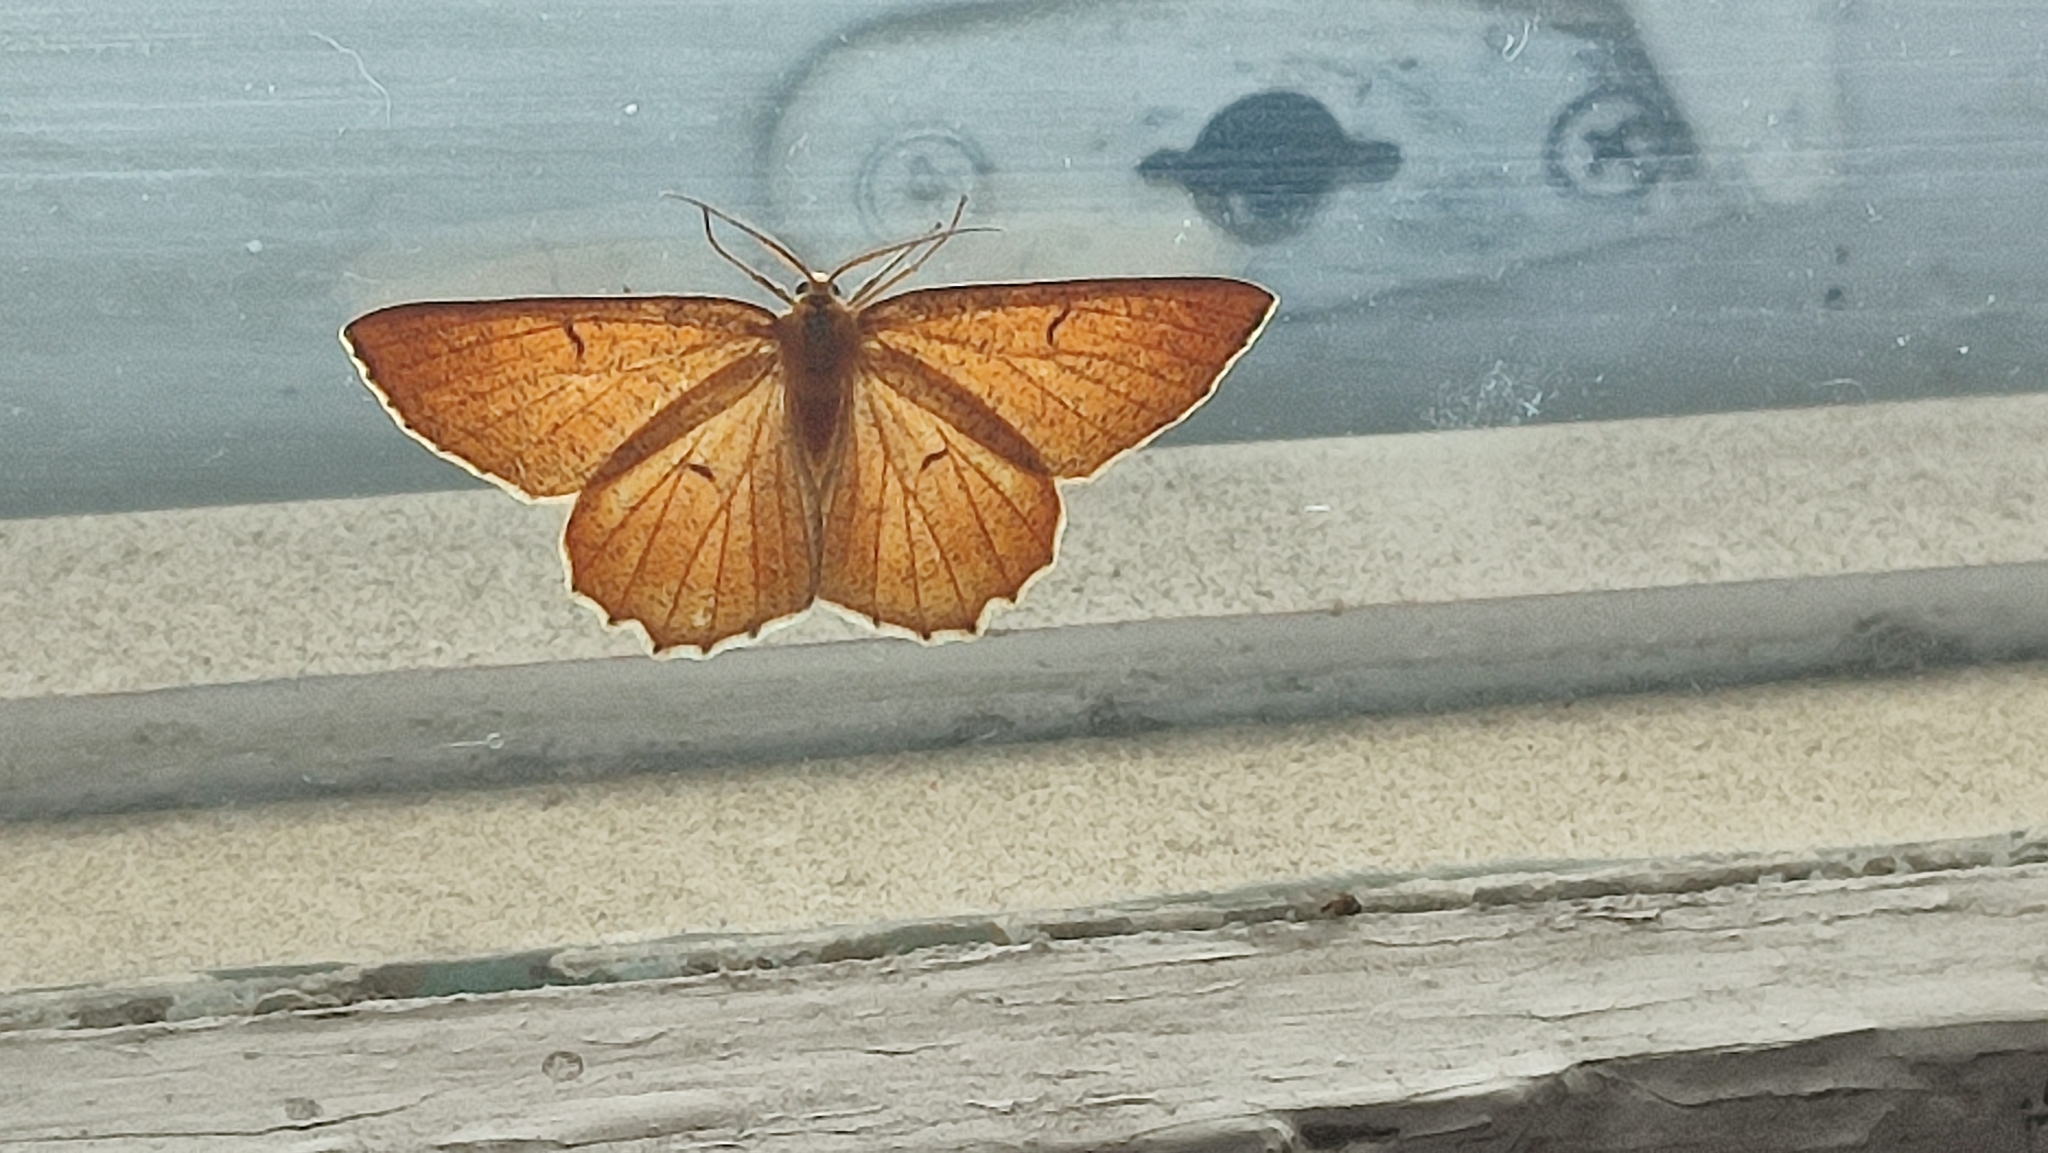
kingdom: Animalia
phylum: Arthropoda
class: Insecta
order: Lepidoptera
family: Geometridae
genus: Angerona
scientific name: Angerona prunaria
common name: Orange moth
